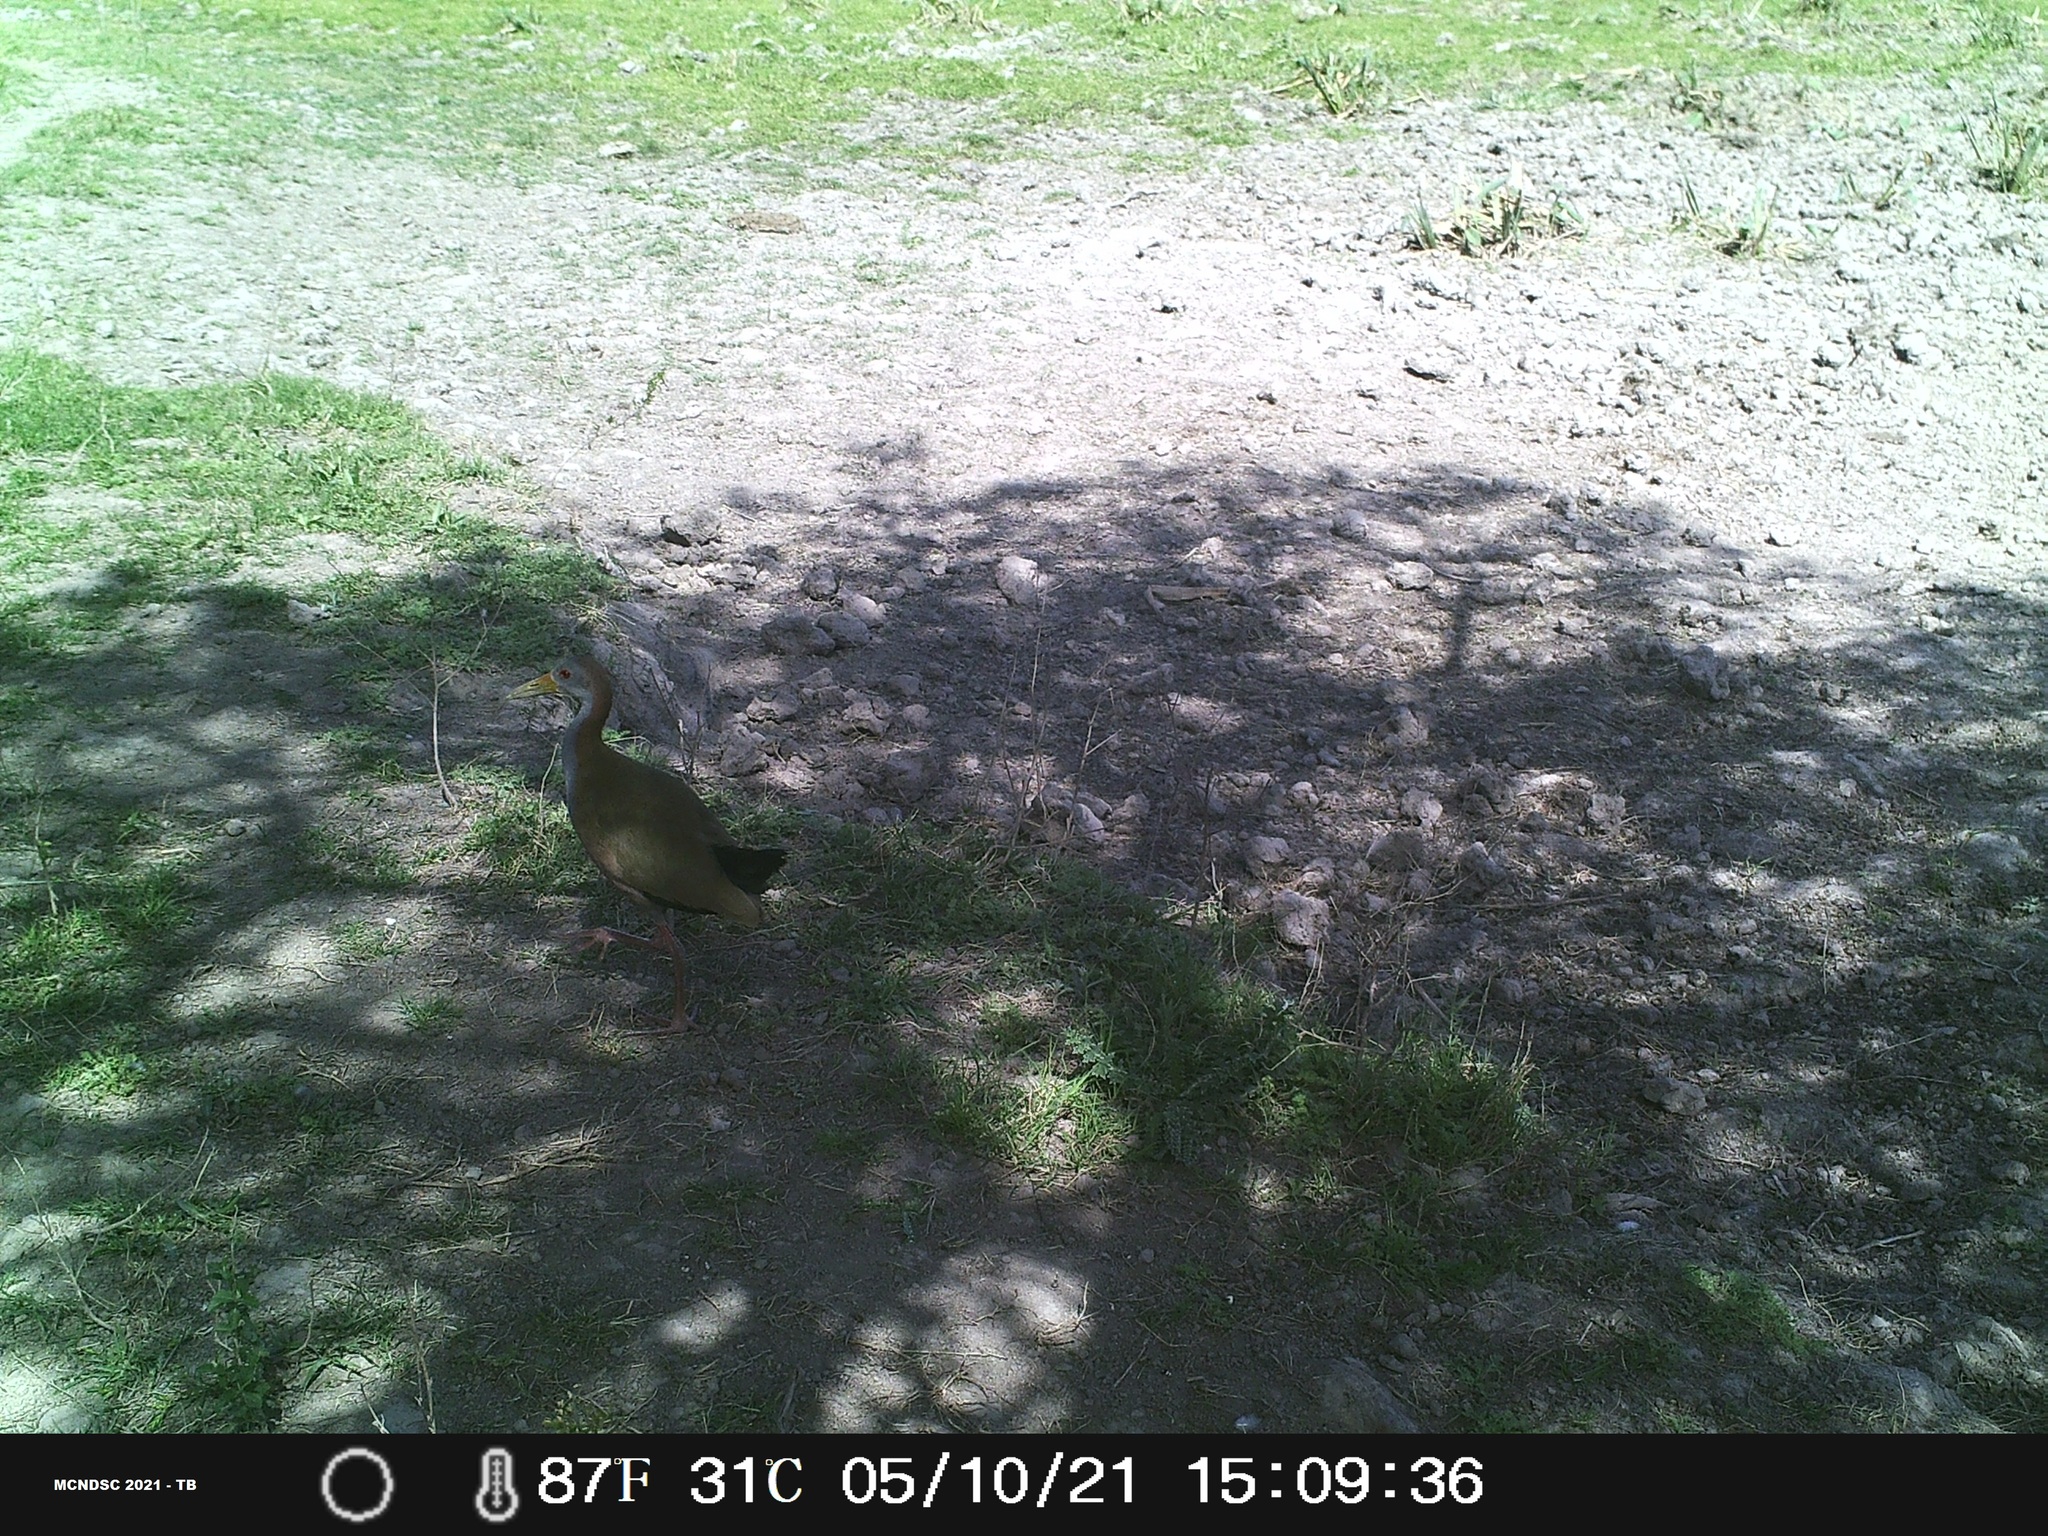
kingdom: Animalia
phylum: Chordata
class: Aves
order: Gruiformes
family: Rallidae
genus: Aramides
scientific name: Aramides ypecaha
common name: Giant wood rail
